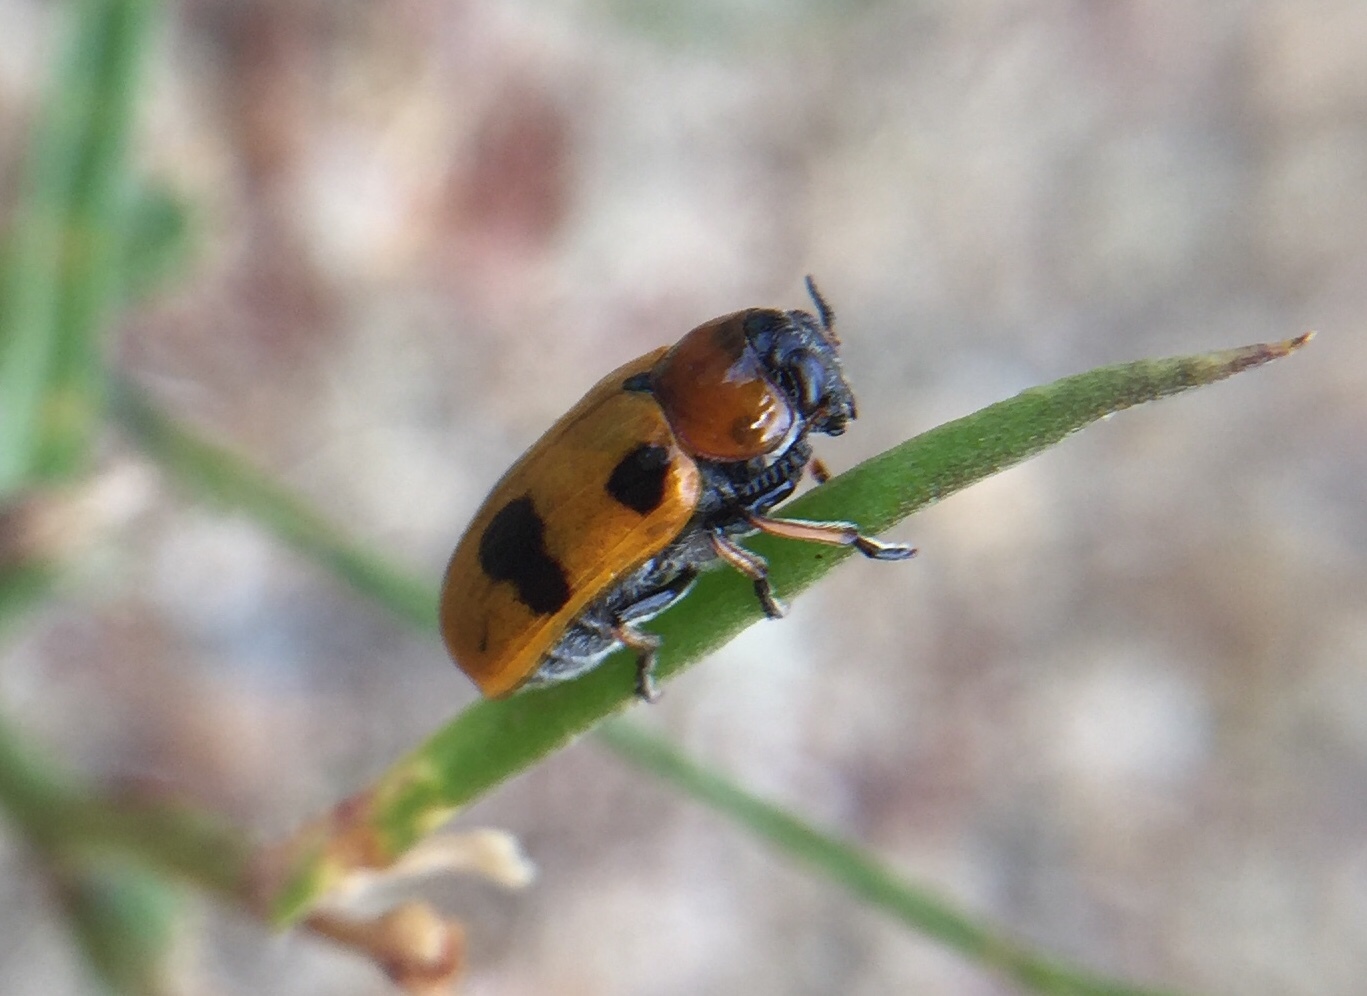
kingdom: Animalia
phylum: Arthropoda
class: Insecta
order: Coleoptera
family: Chrysomelidae
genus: Tituboea
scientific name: Tituboea macropus
